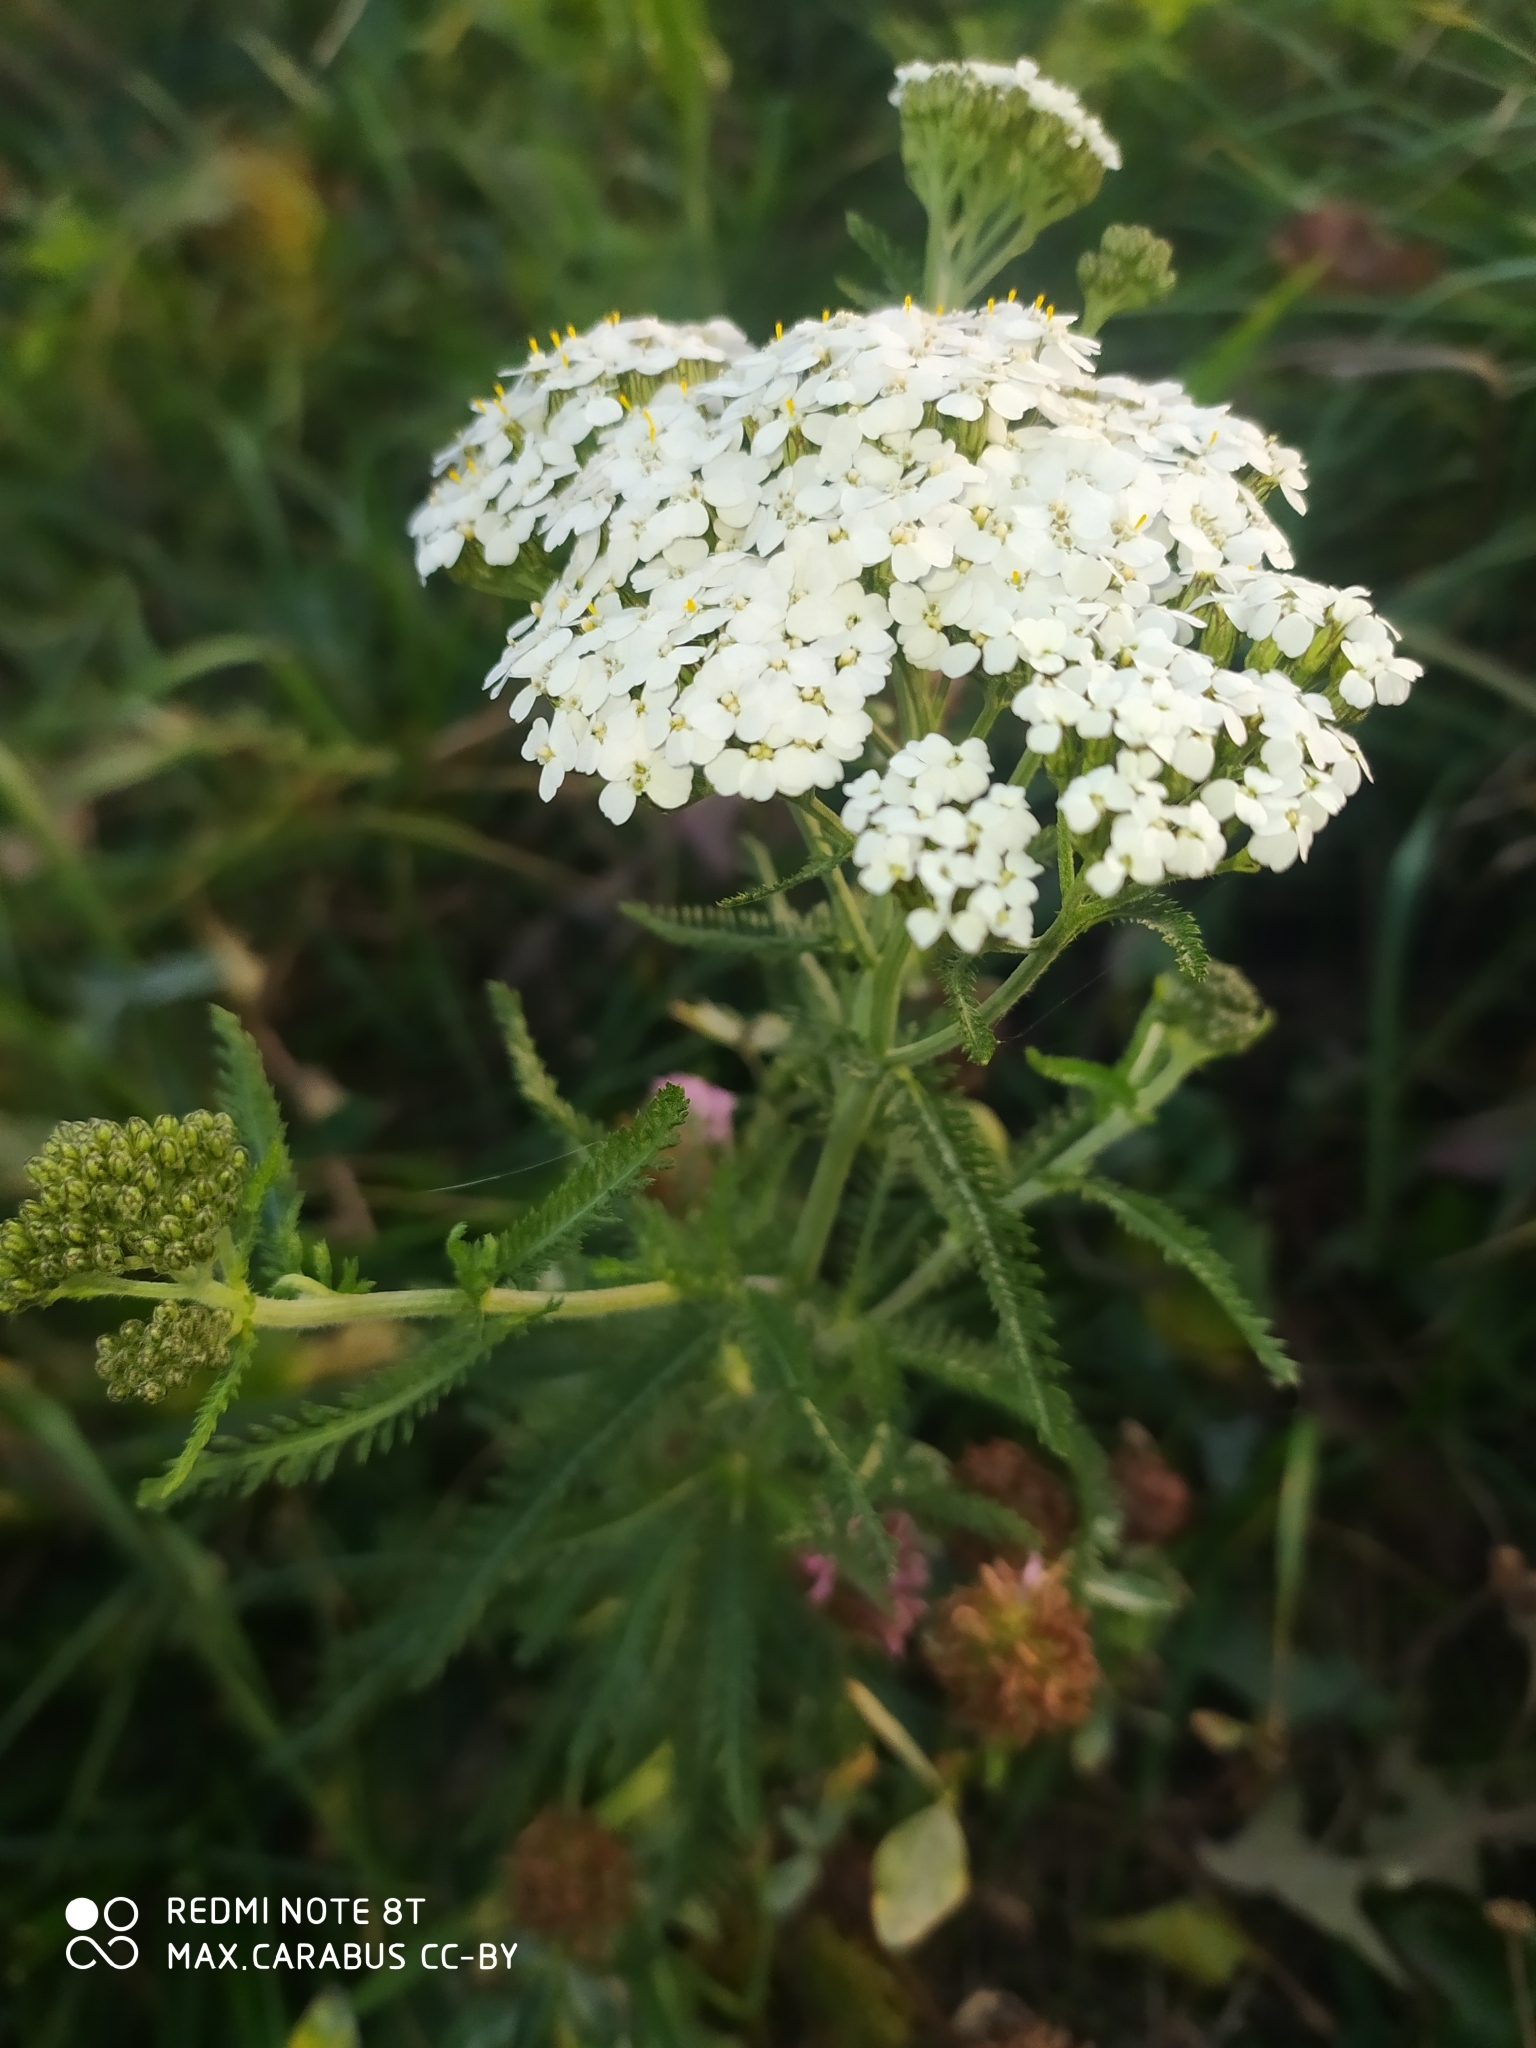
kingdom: Plantae
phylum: Tracheophyta
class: Magnoliopsida
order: Asterales
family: Asteraceae
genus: Achillea
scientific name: Achillea millefolium
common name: Yarrow
